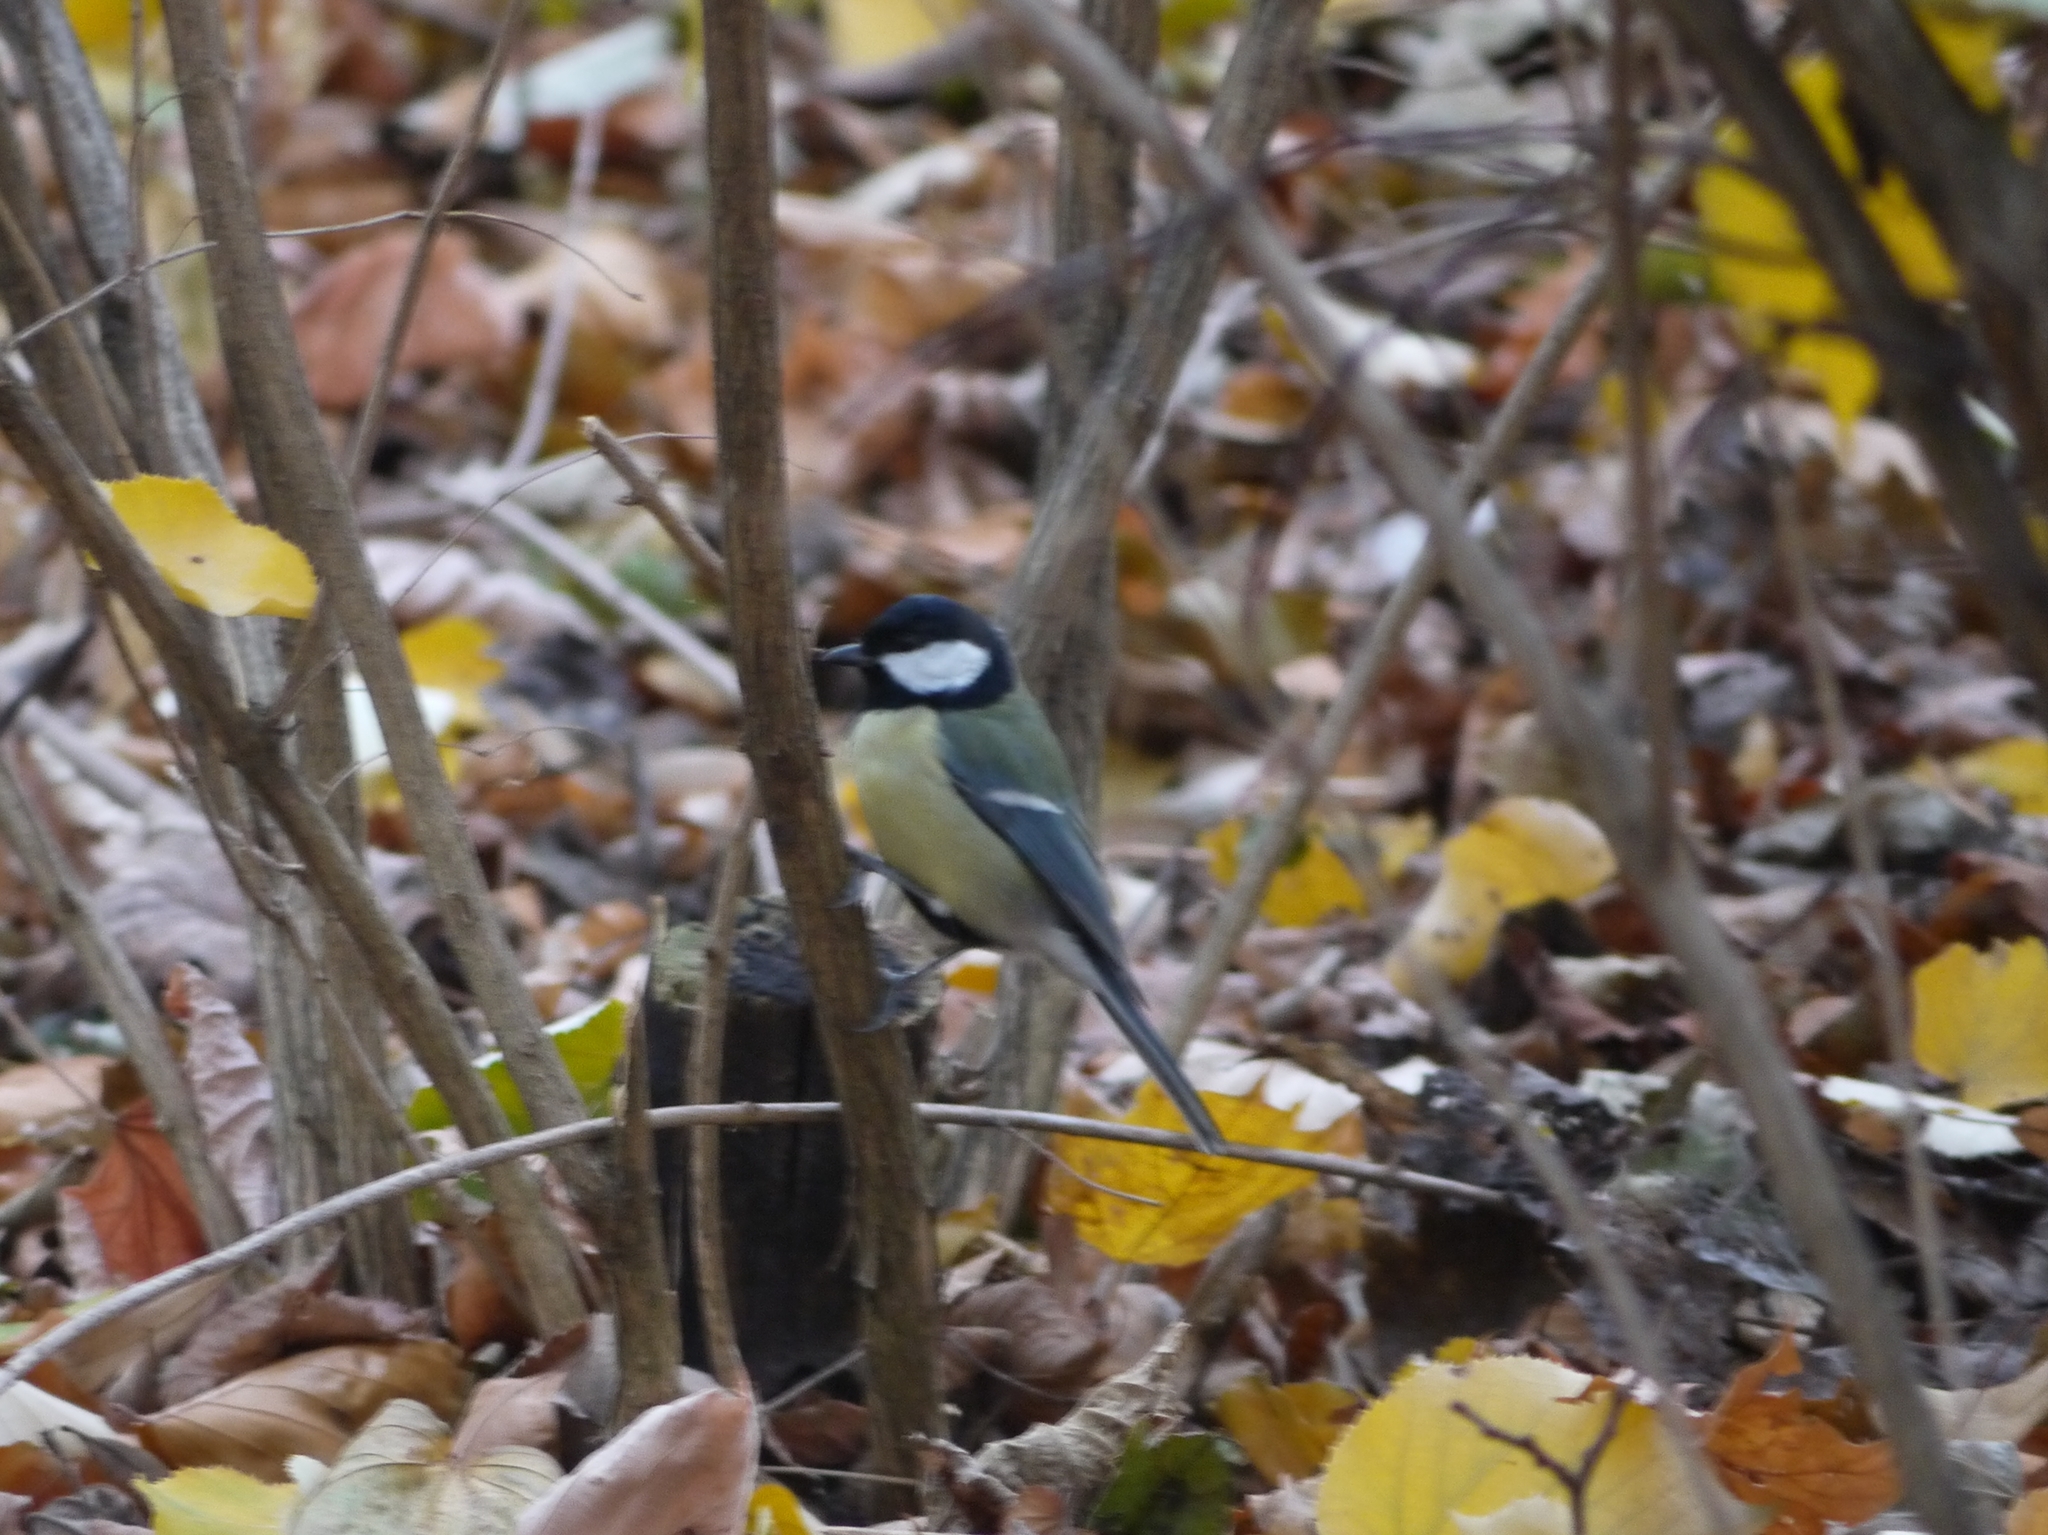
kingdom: Animalia
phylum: Chordata
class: Aves
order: Passeriformes
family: Paridae
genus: Parus
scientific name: Parus major
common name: Great tit
